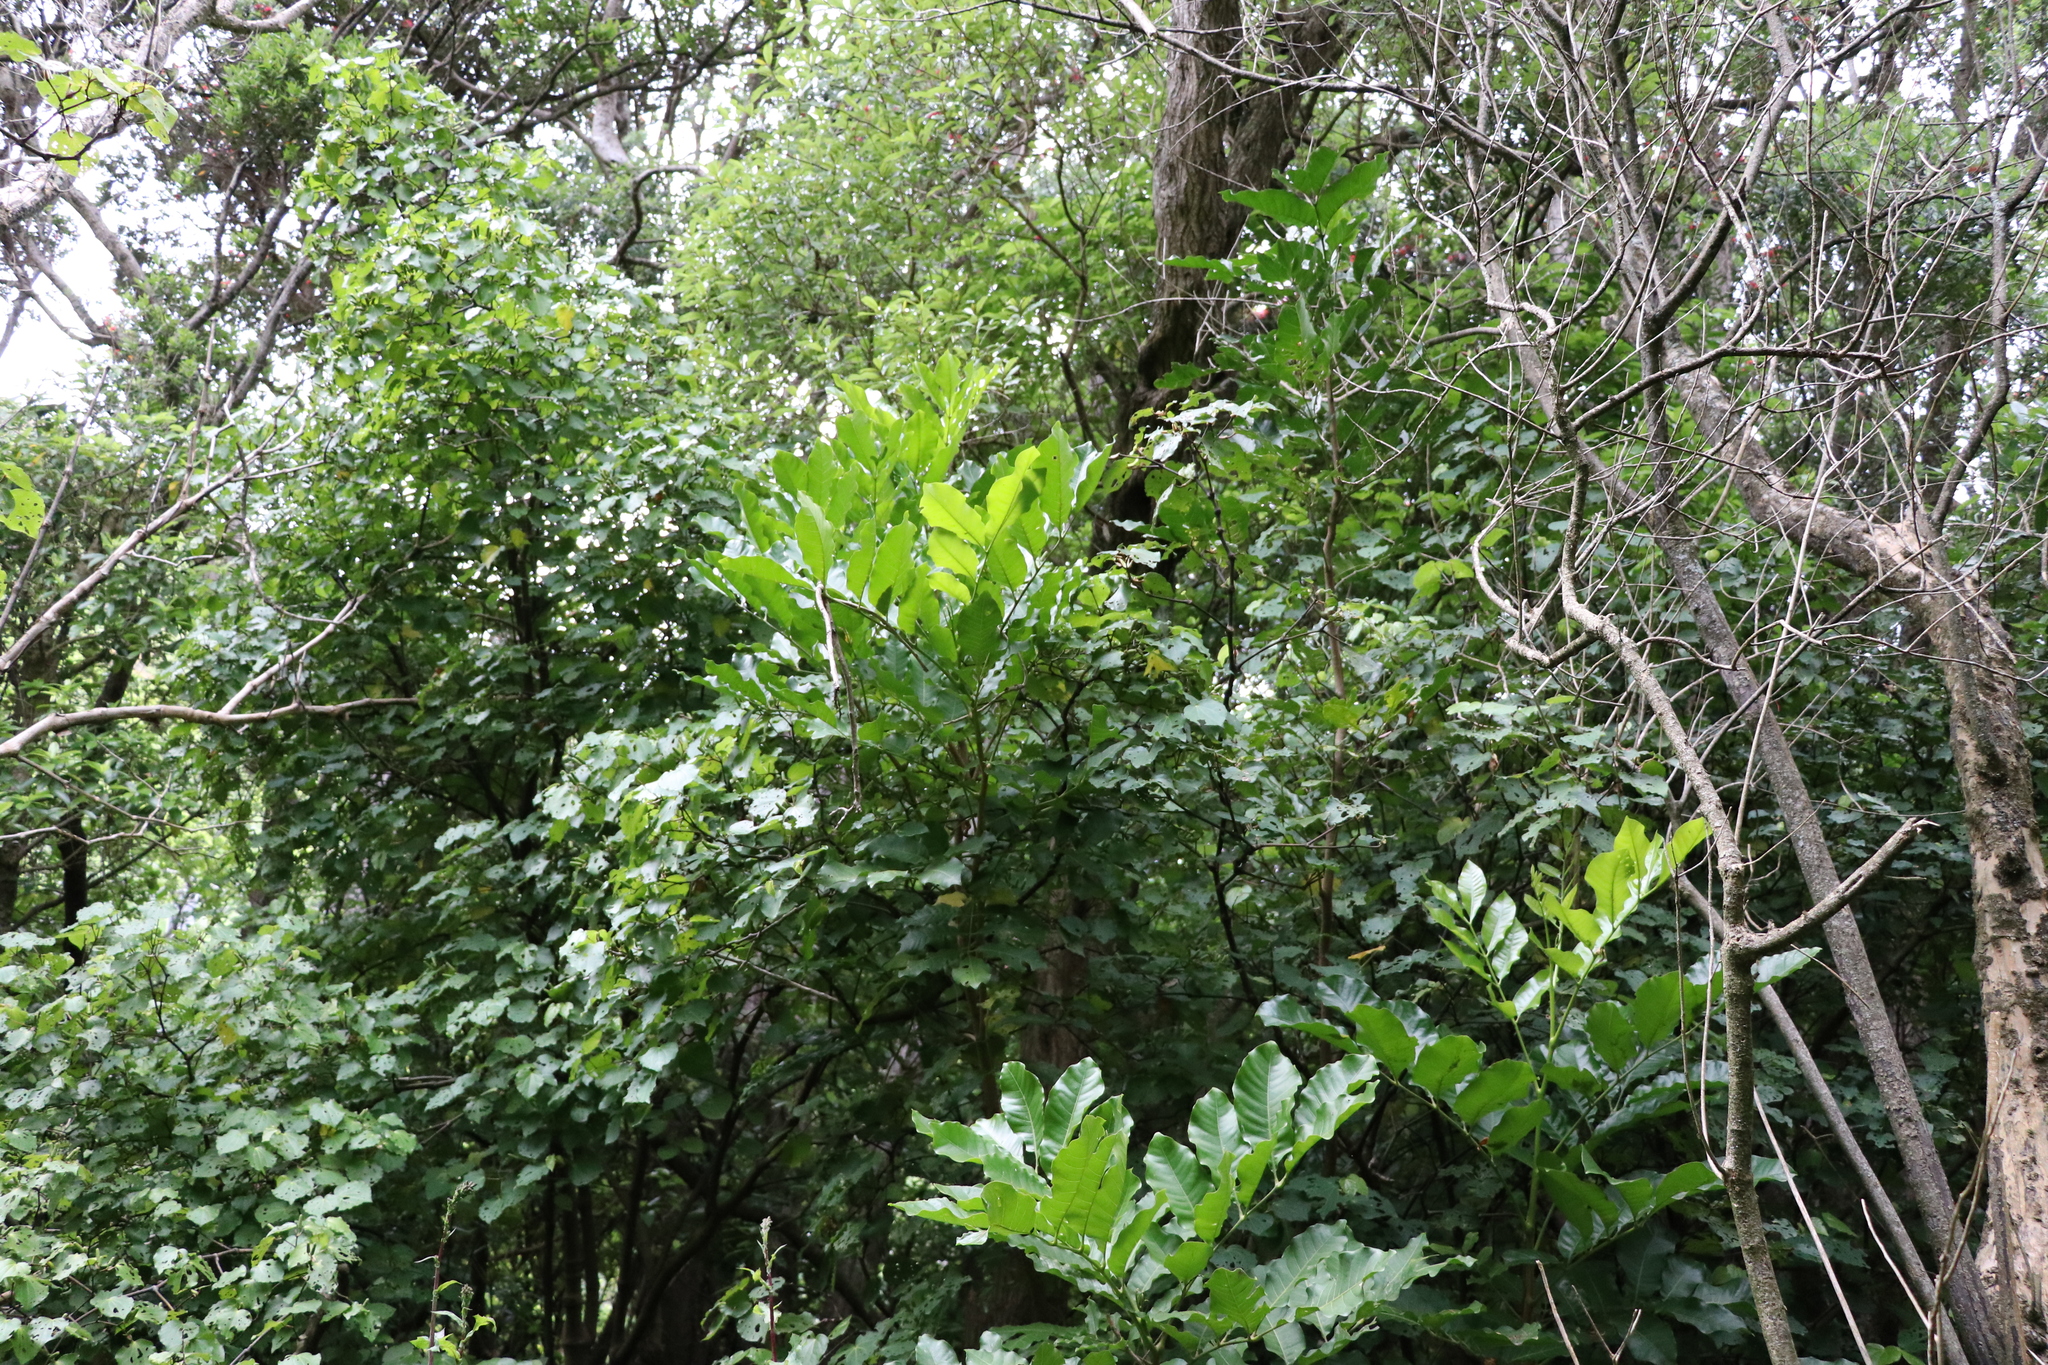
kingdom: Plantae
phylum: Tracheophyta
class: Magnoliopsida
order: Sapindales
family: Meliaceae
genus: Didymocheton
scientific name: Didymocheton spectabilis
